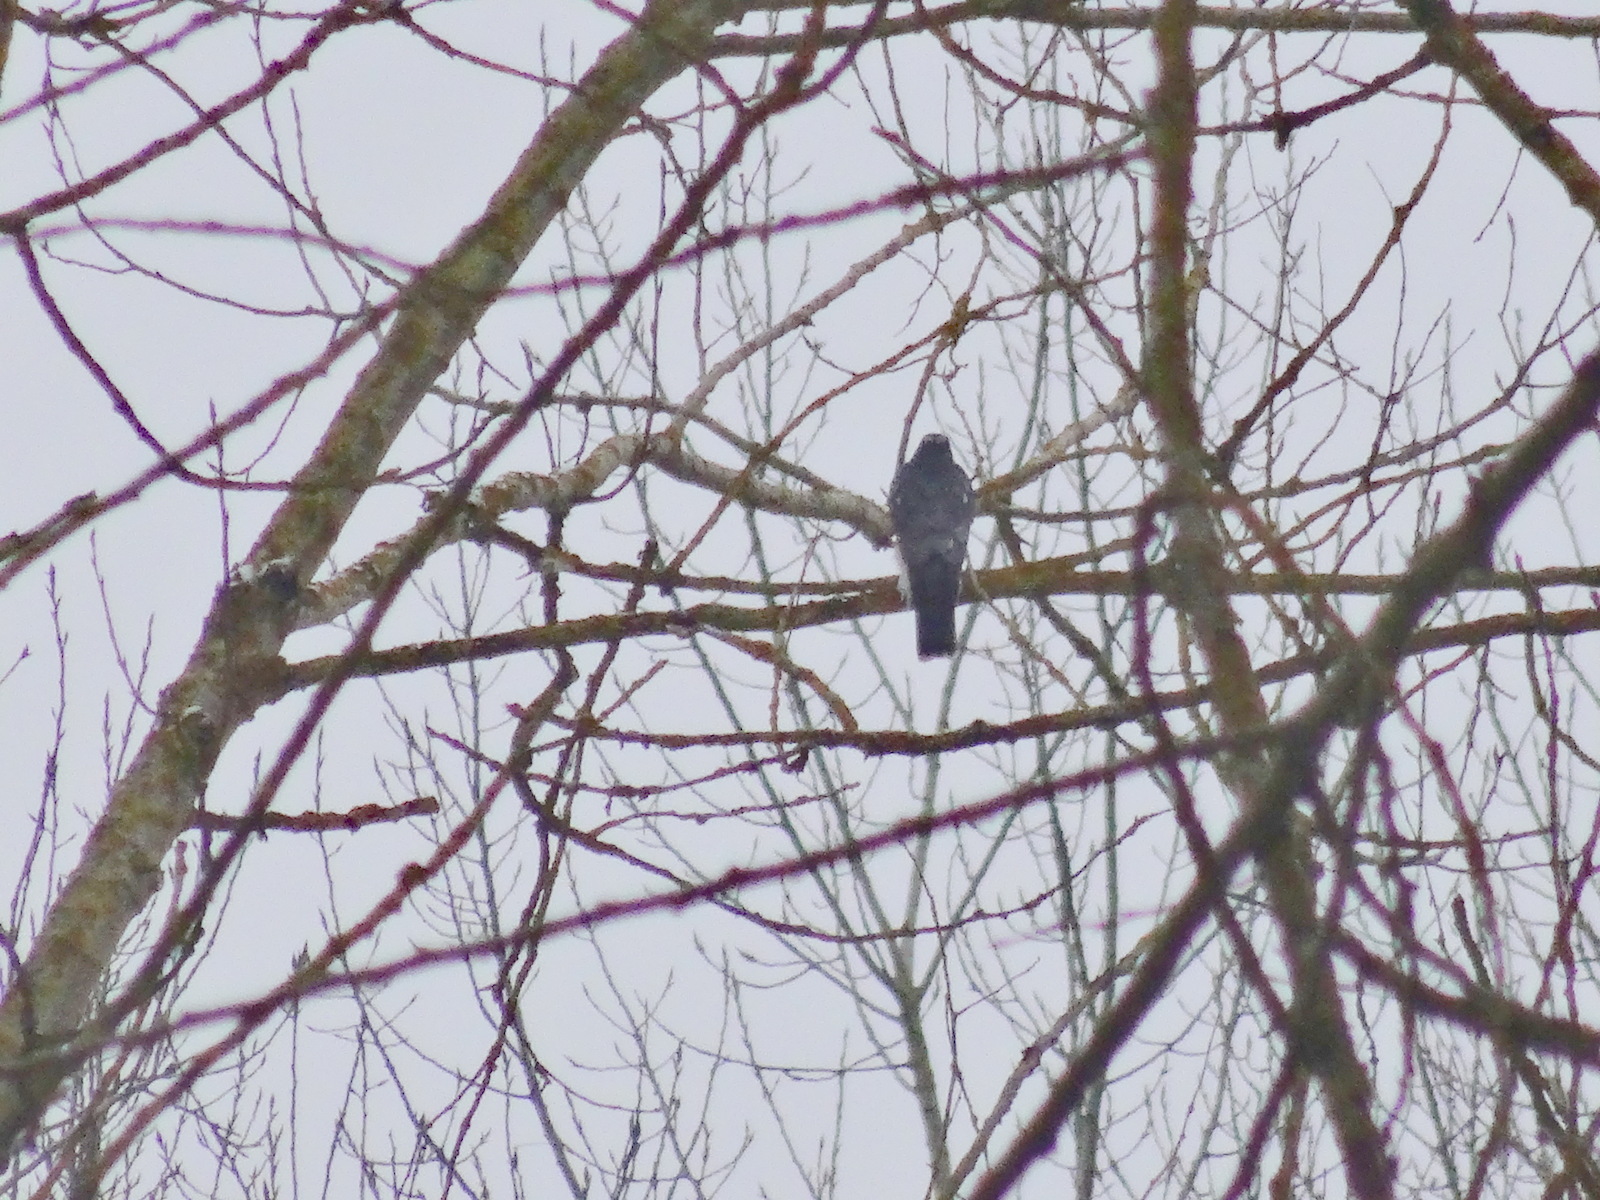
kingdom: Animalia
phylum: Chordata
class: Aves
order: Accipitriformes
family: Accipitridae
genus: Accipiter
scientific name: Accipiter nisus
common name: Eurasian sparrowhawk
